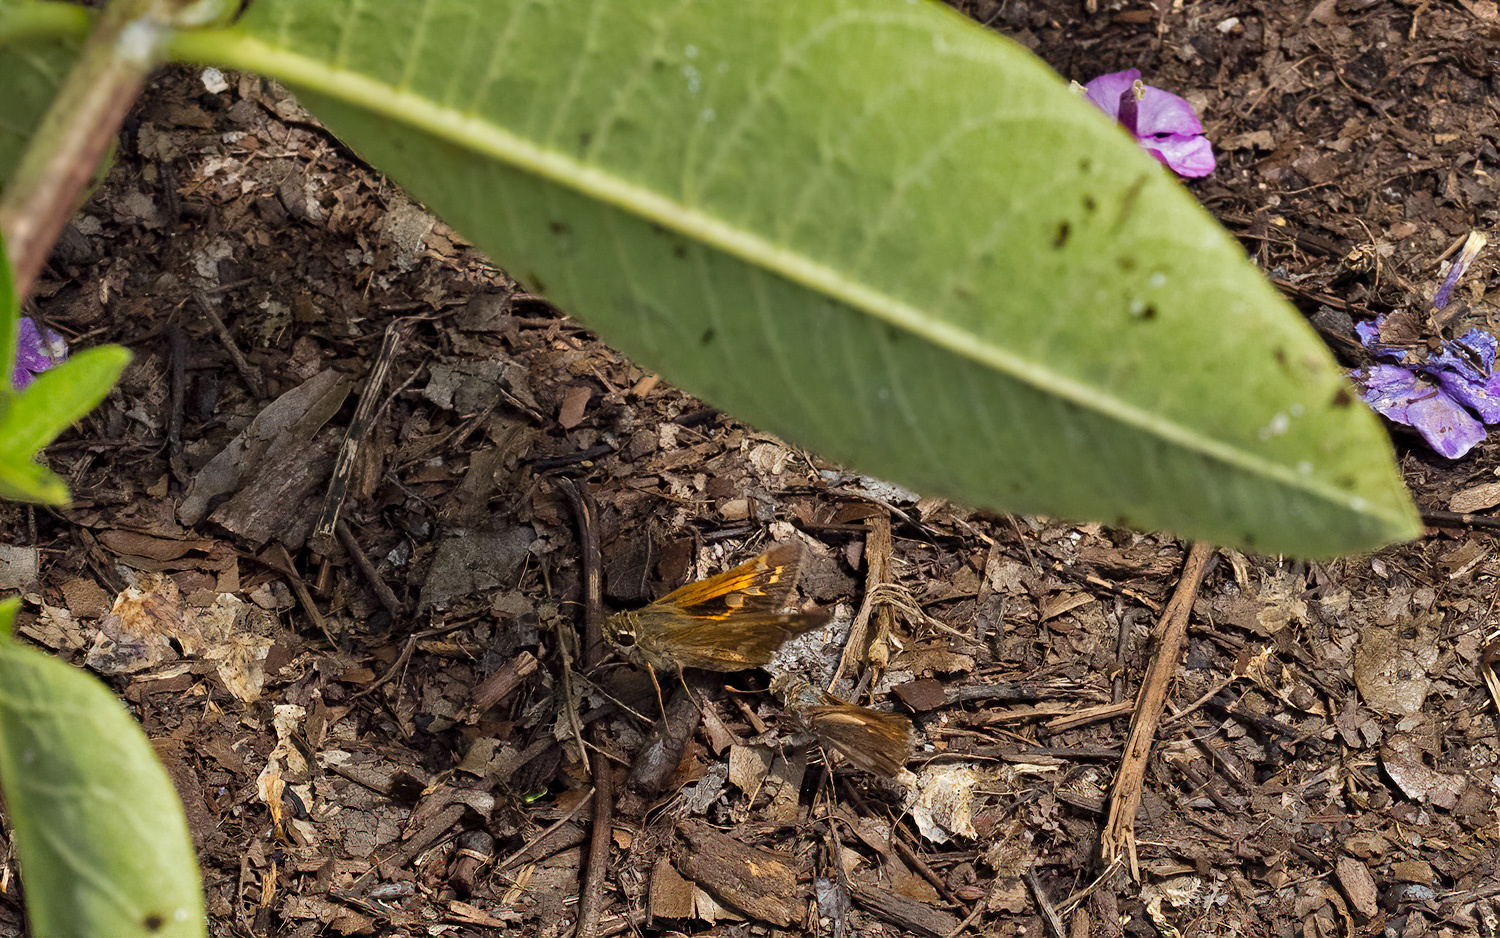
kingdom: Animalia
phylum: Arthropoda
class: Insecta
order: Lepidoptera
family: Hesperiidae
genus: Atalopedes
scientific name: Atalopedes
